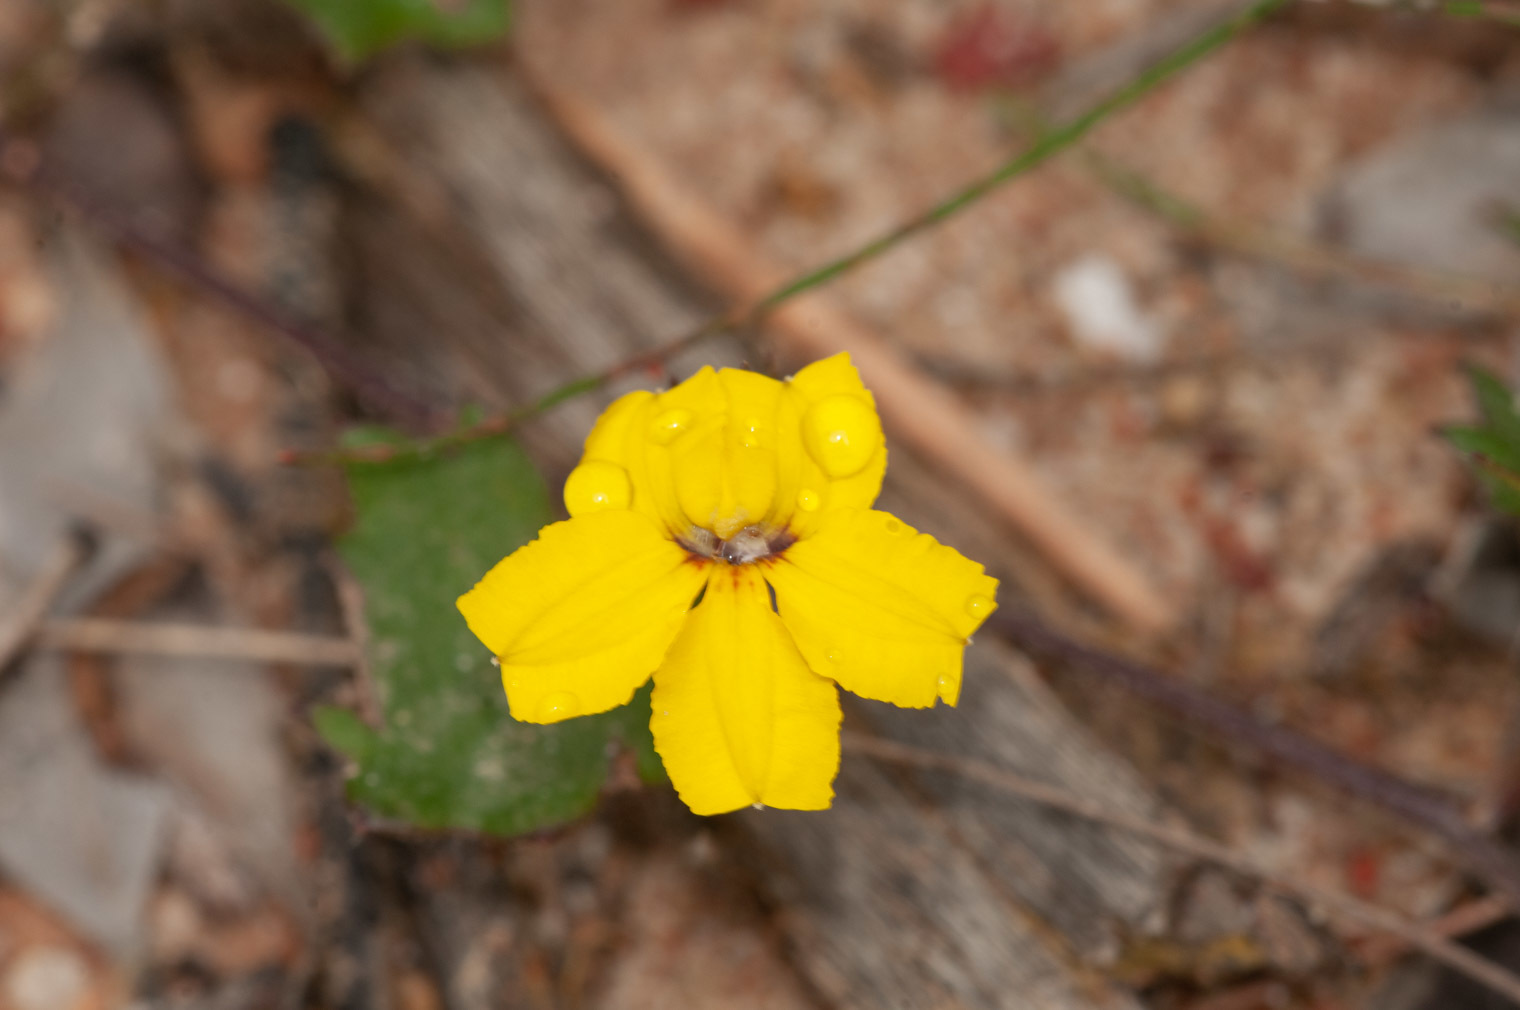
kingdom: Plantae
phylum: Tracheophyta
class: Magnoliopsida
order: Asterales
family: Goodeniaceae
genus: Goodenia
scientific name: Goodenia rotundifolia
